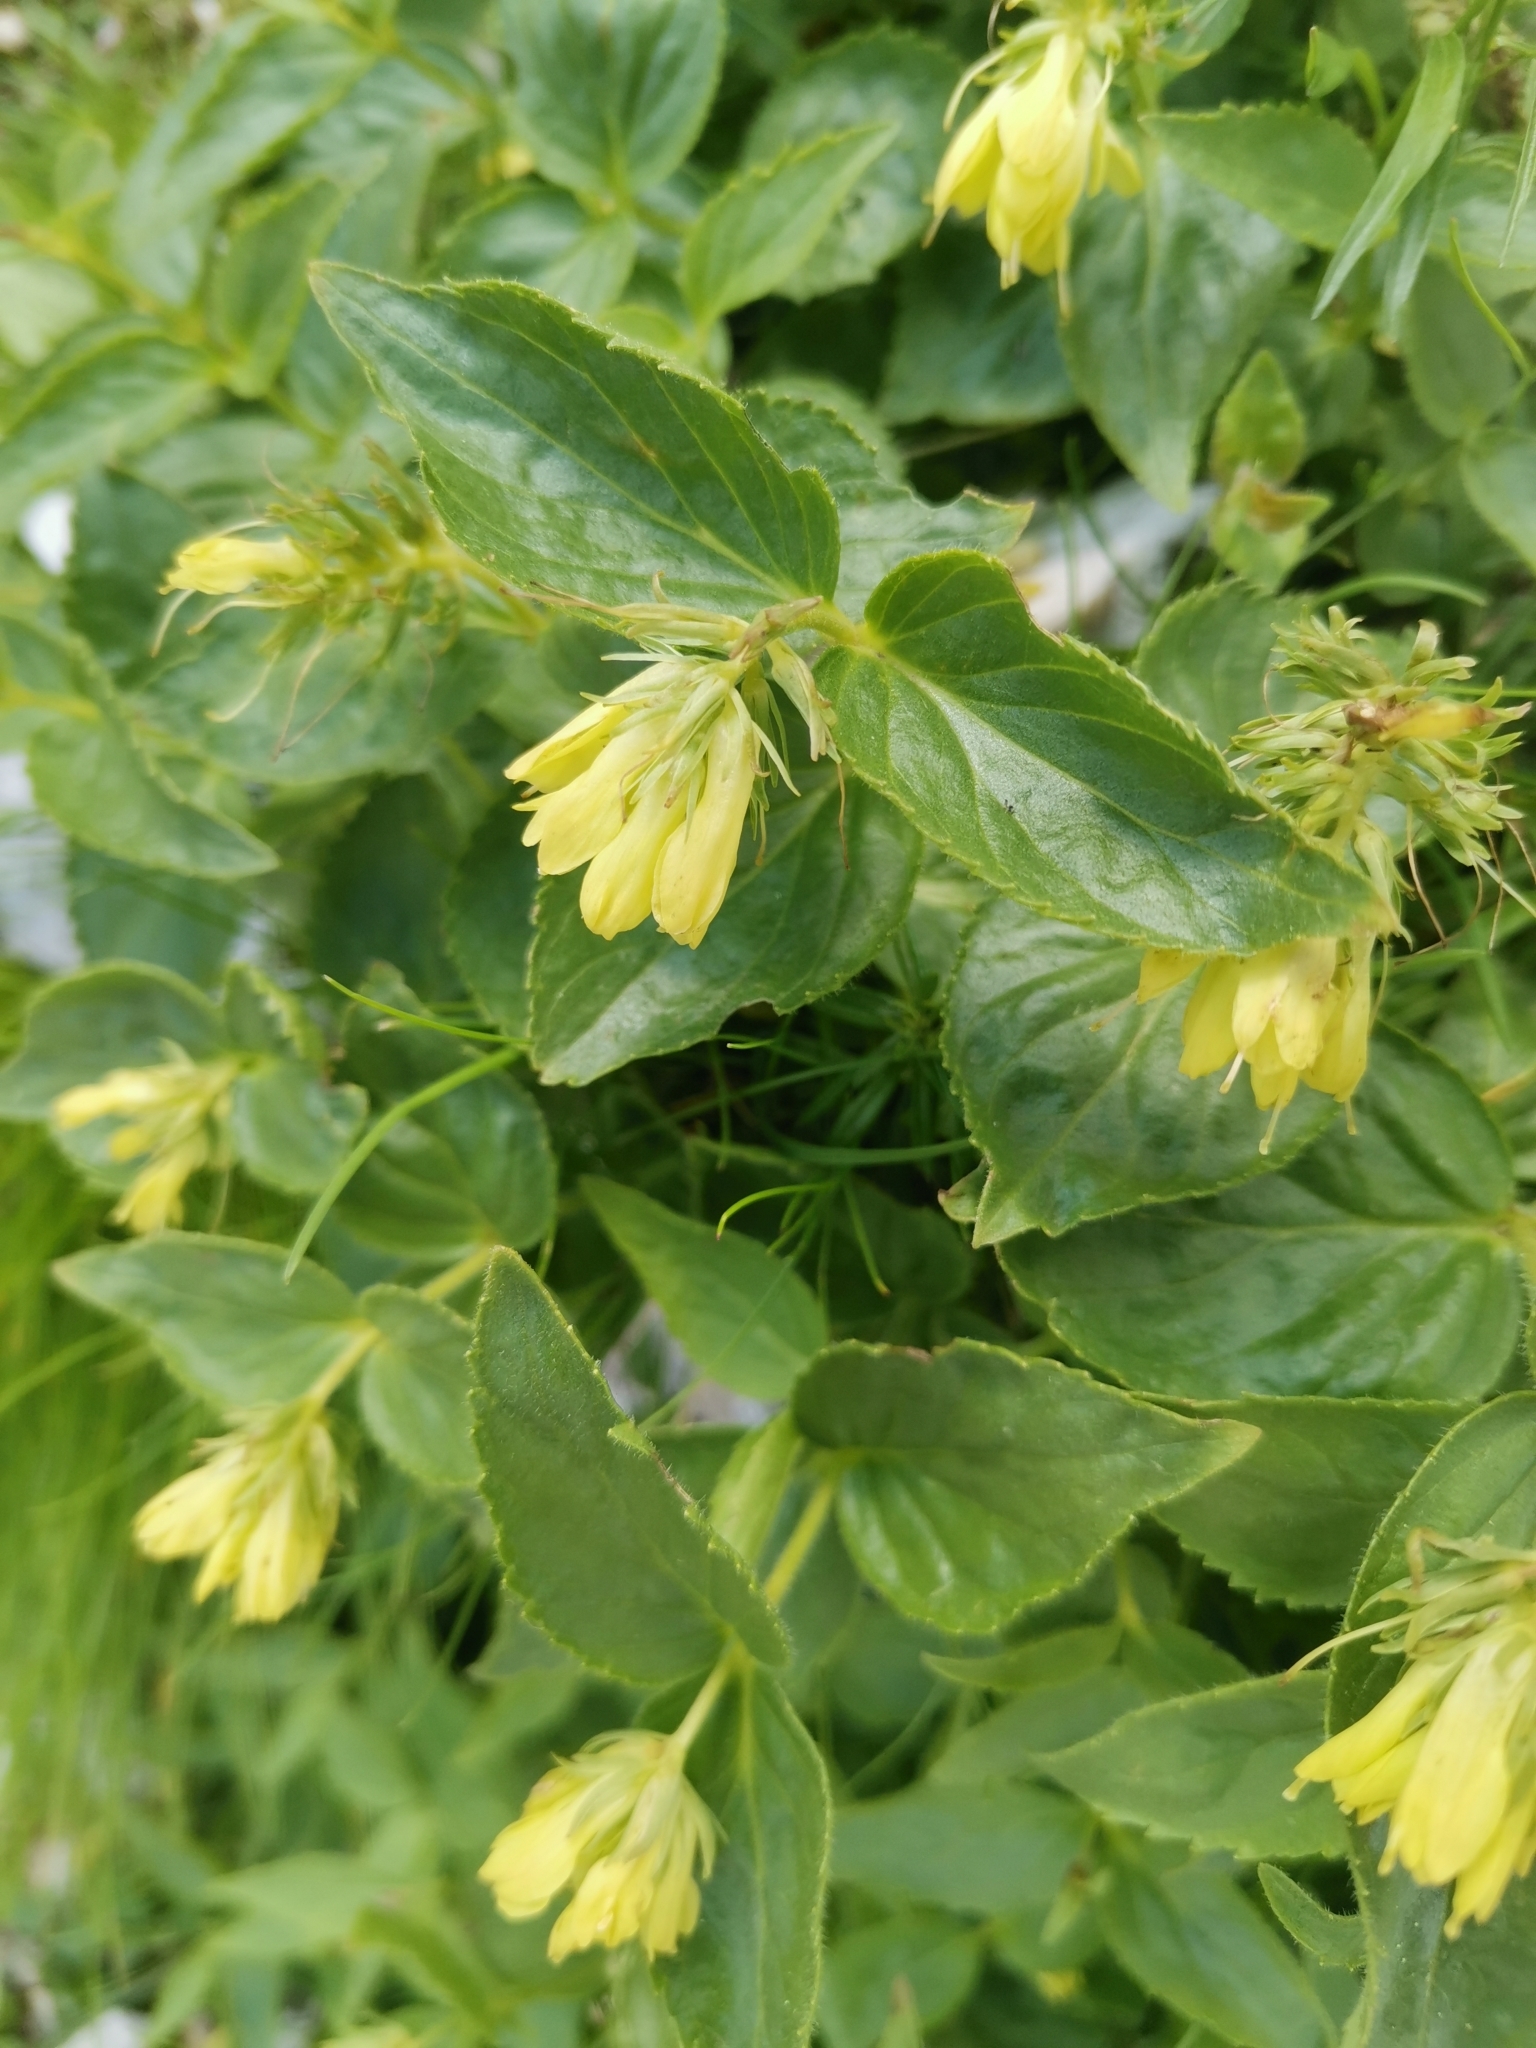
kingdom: Plantae
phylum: Tracheophyta
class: Magnoliopsida
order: Lamiales
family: Plantaginaceae
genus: Paederota
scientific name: Paederota lutea
